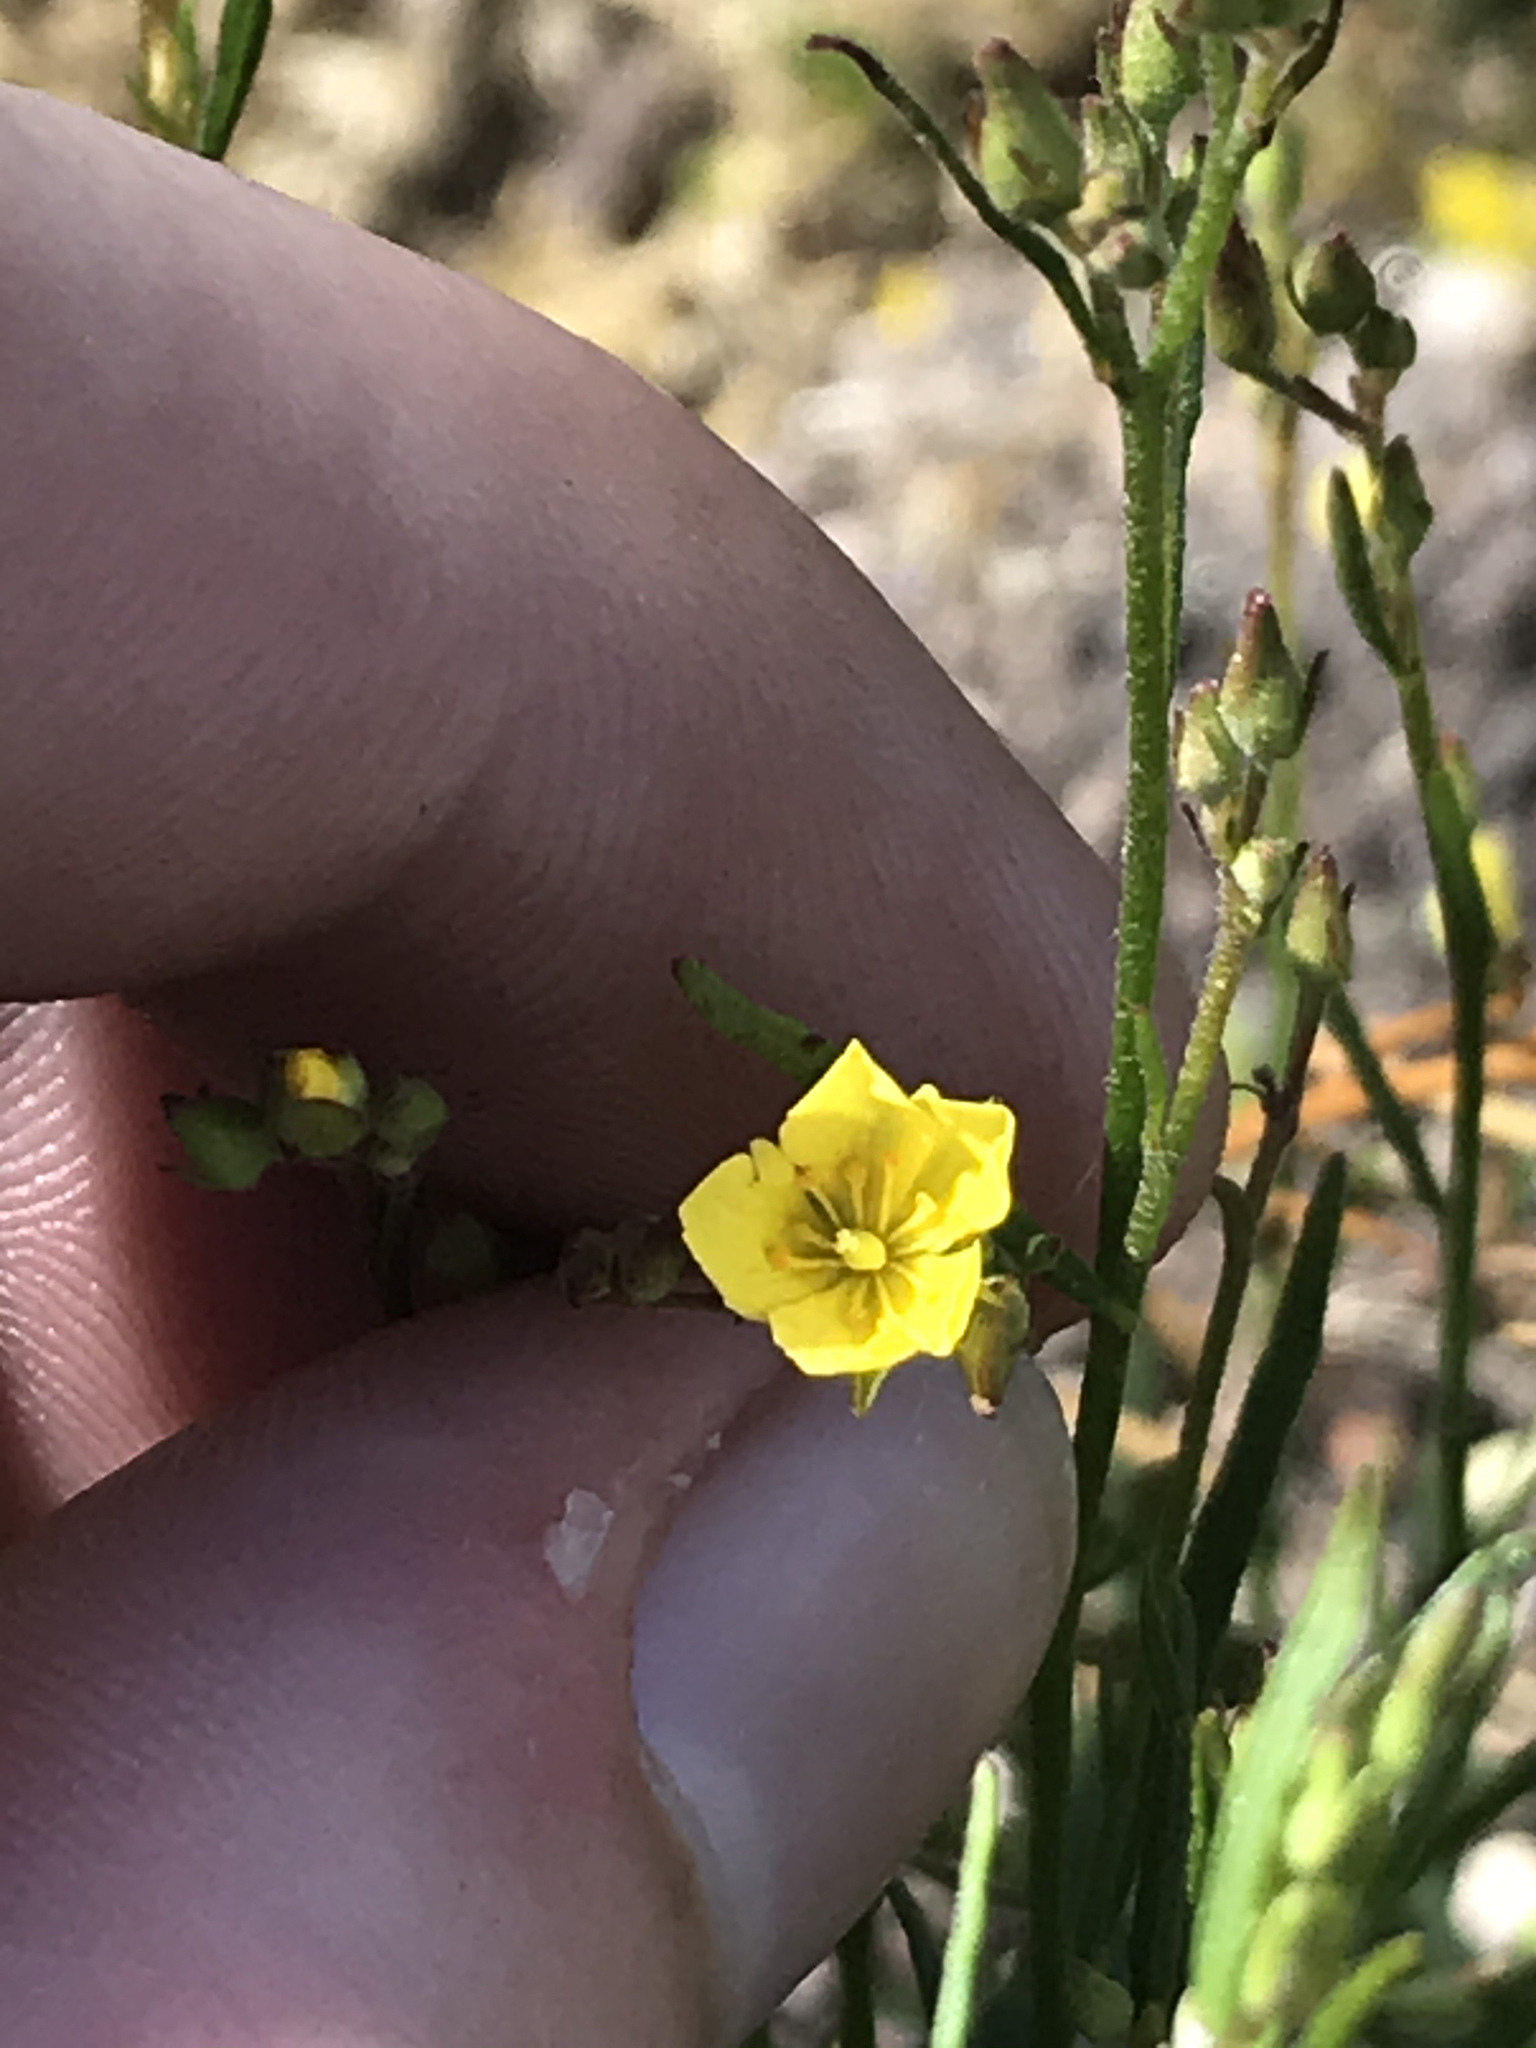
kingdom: Plantae
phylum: Tracheophyta
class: Magnoliopsida
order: Malvales
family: Cistaceae
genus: Crocanthemum
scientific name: Crocanthemum scoparium
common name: Broom-rose
